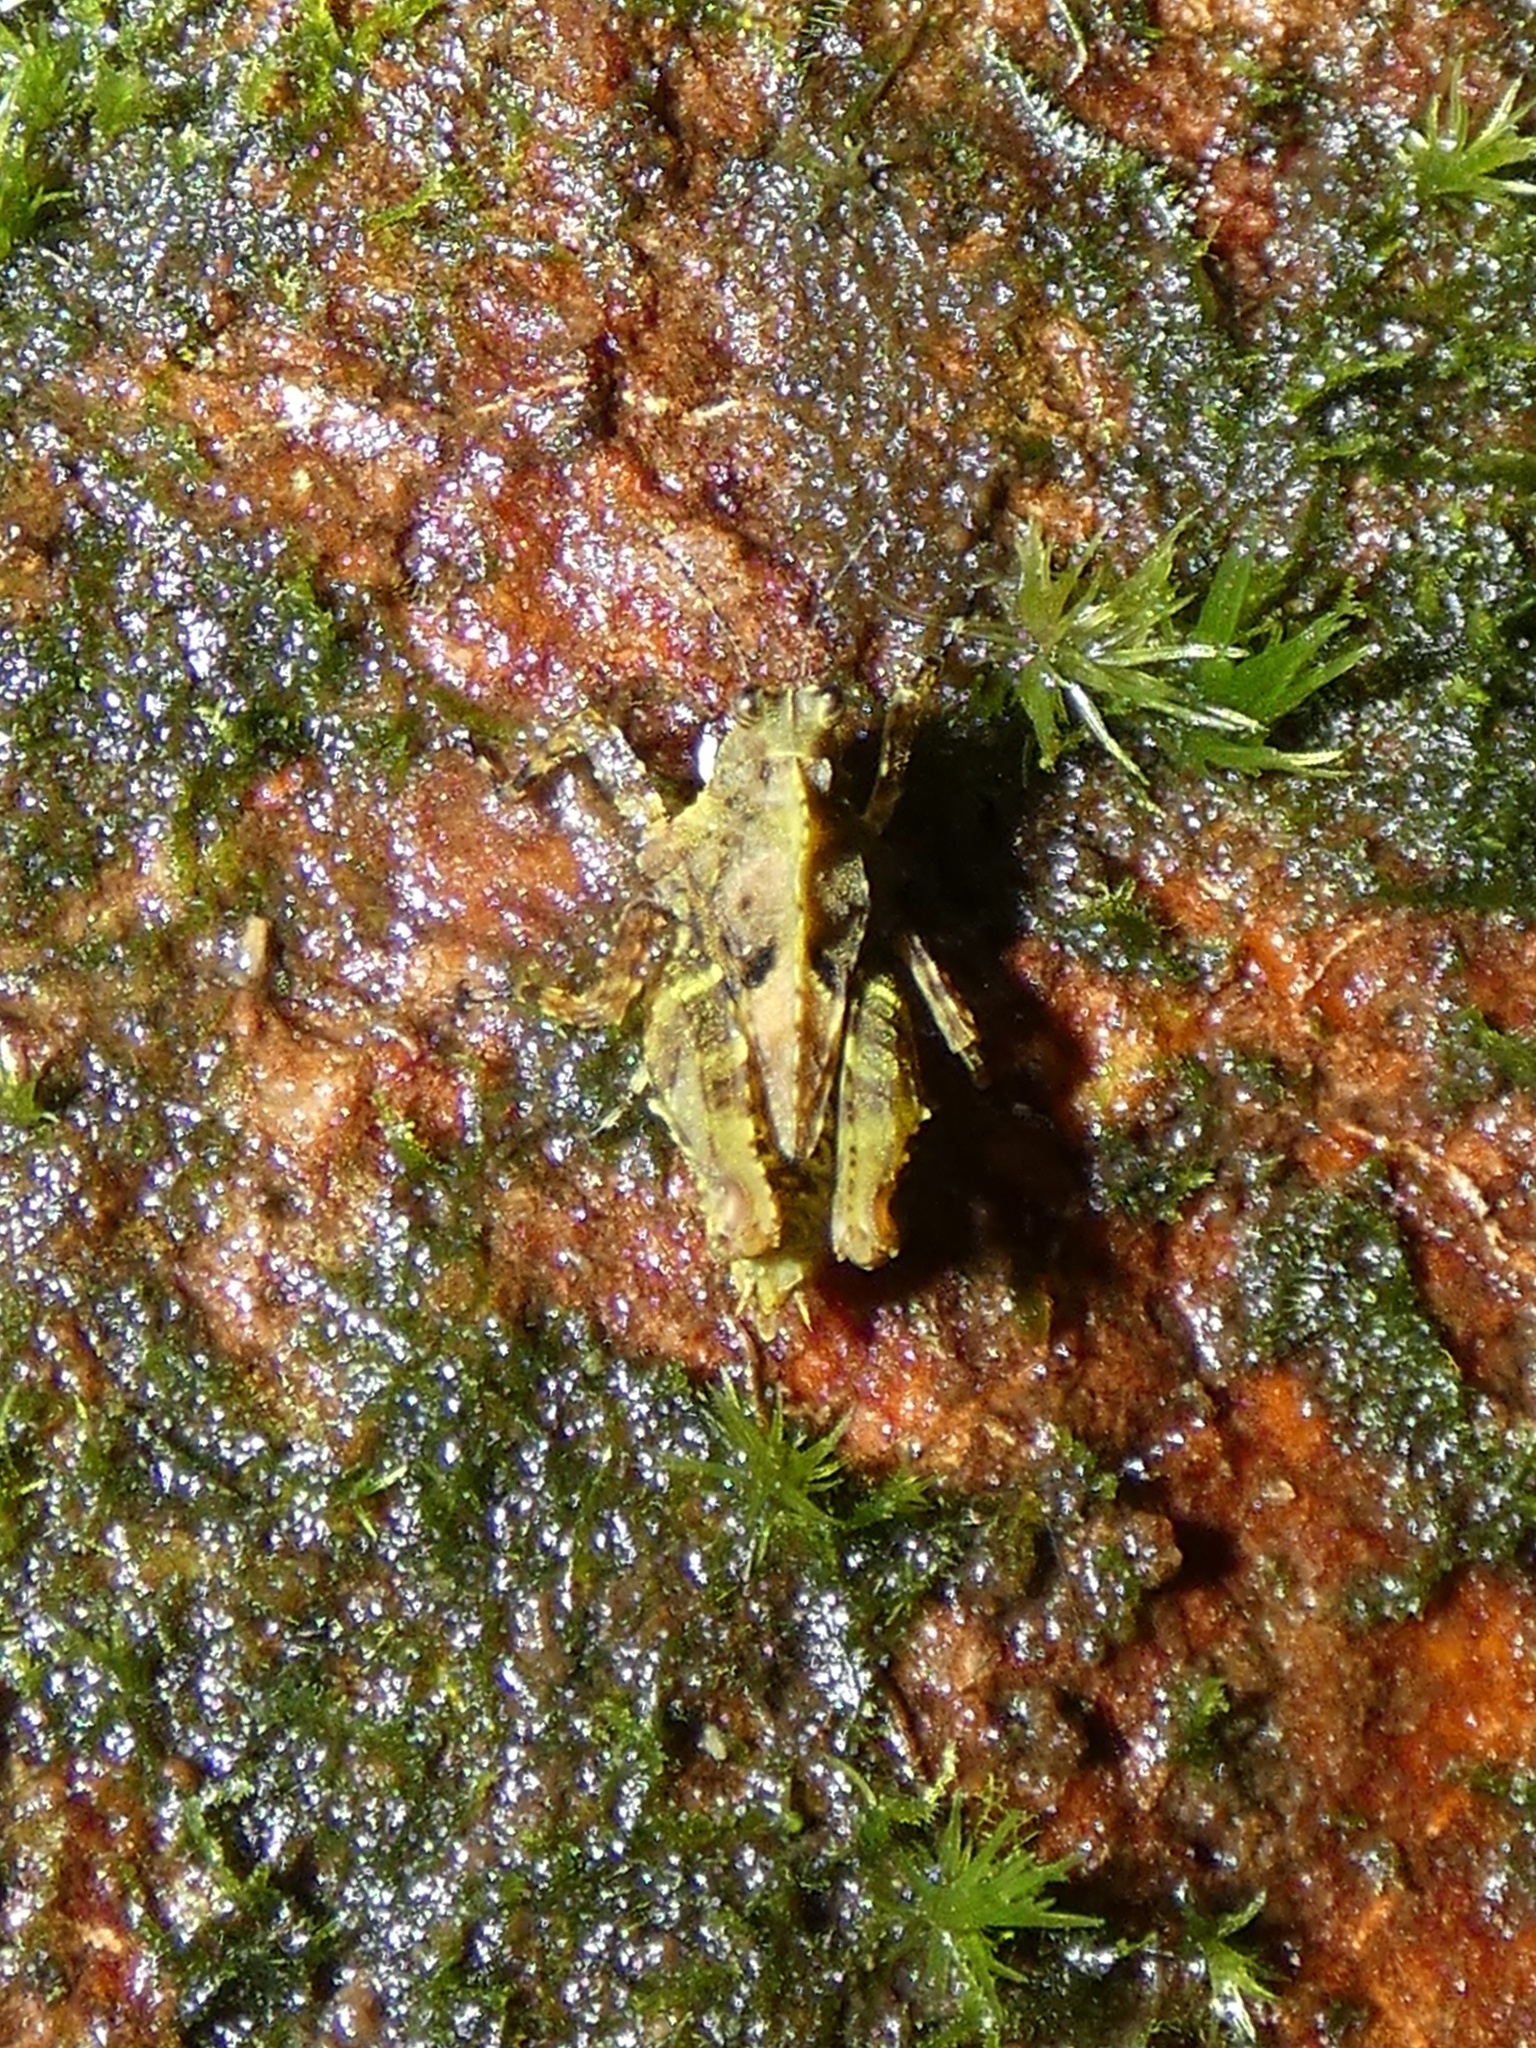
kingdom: Animalia
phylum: Arthropoda
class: Insecta
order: Orthoptera
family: Tetrigidae
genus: Chiriquia
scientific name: Chiriquia serrata
